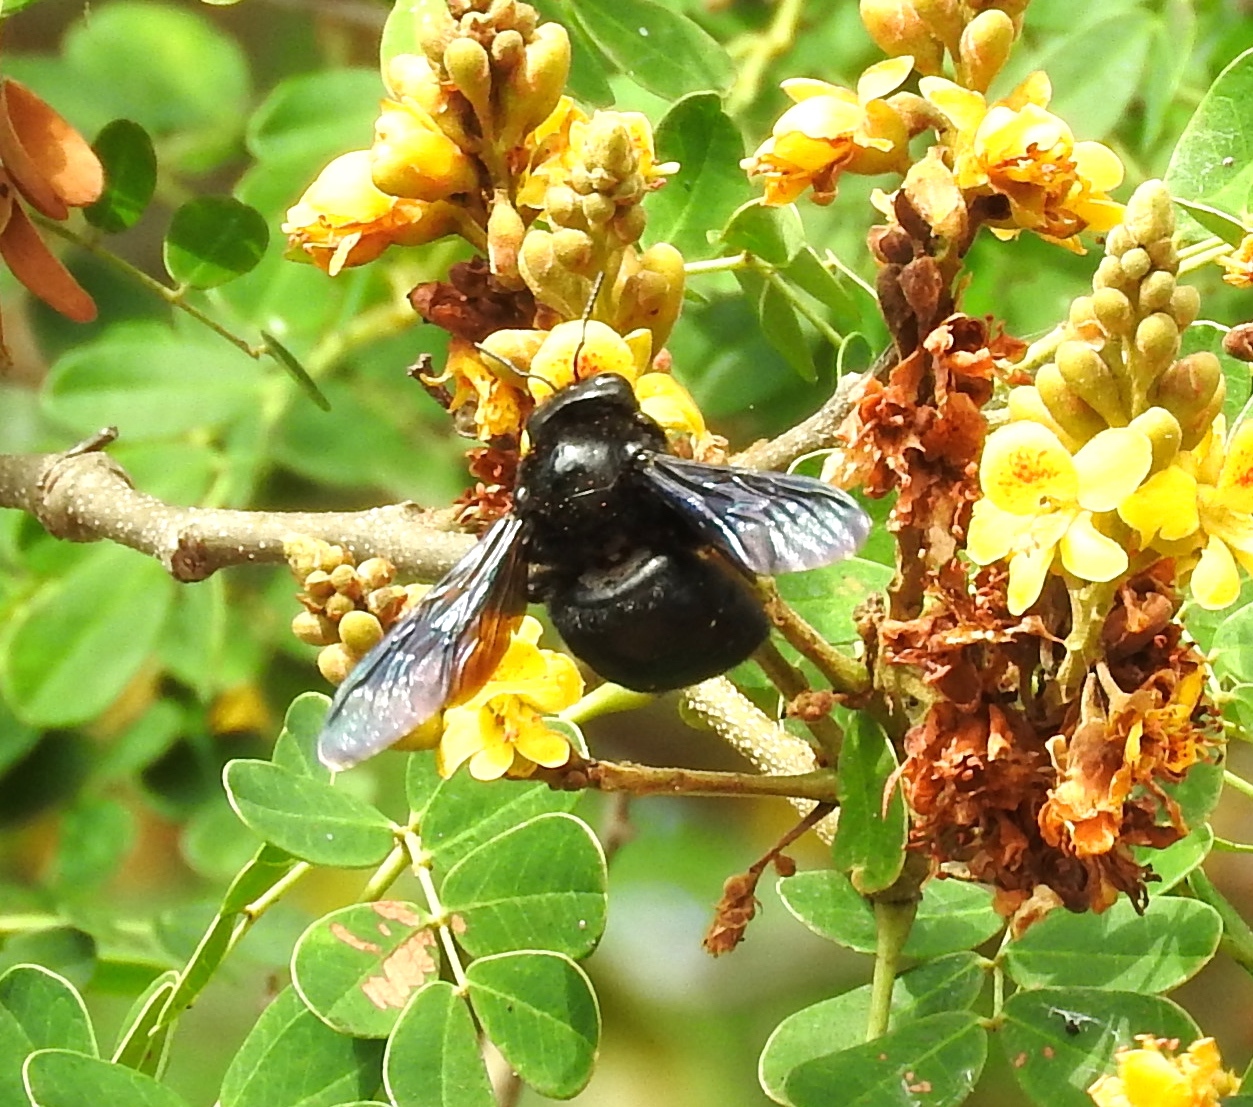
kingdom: Animalia
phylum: Arthropoda
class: Insecta
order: Hymenoptera
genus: Neoxylocopa
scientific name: Neoxylocopa
